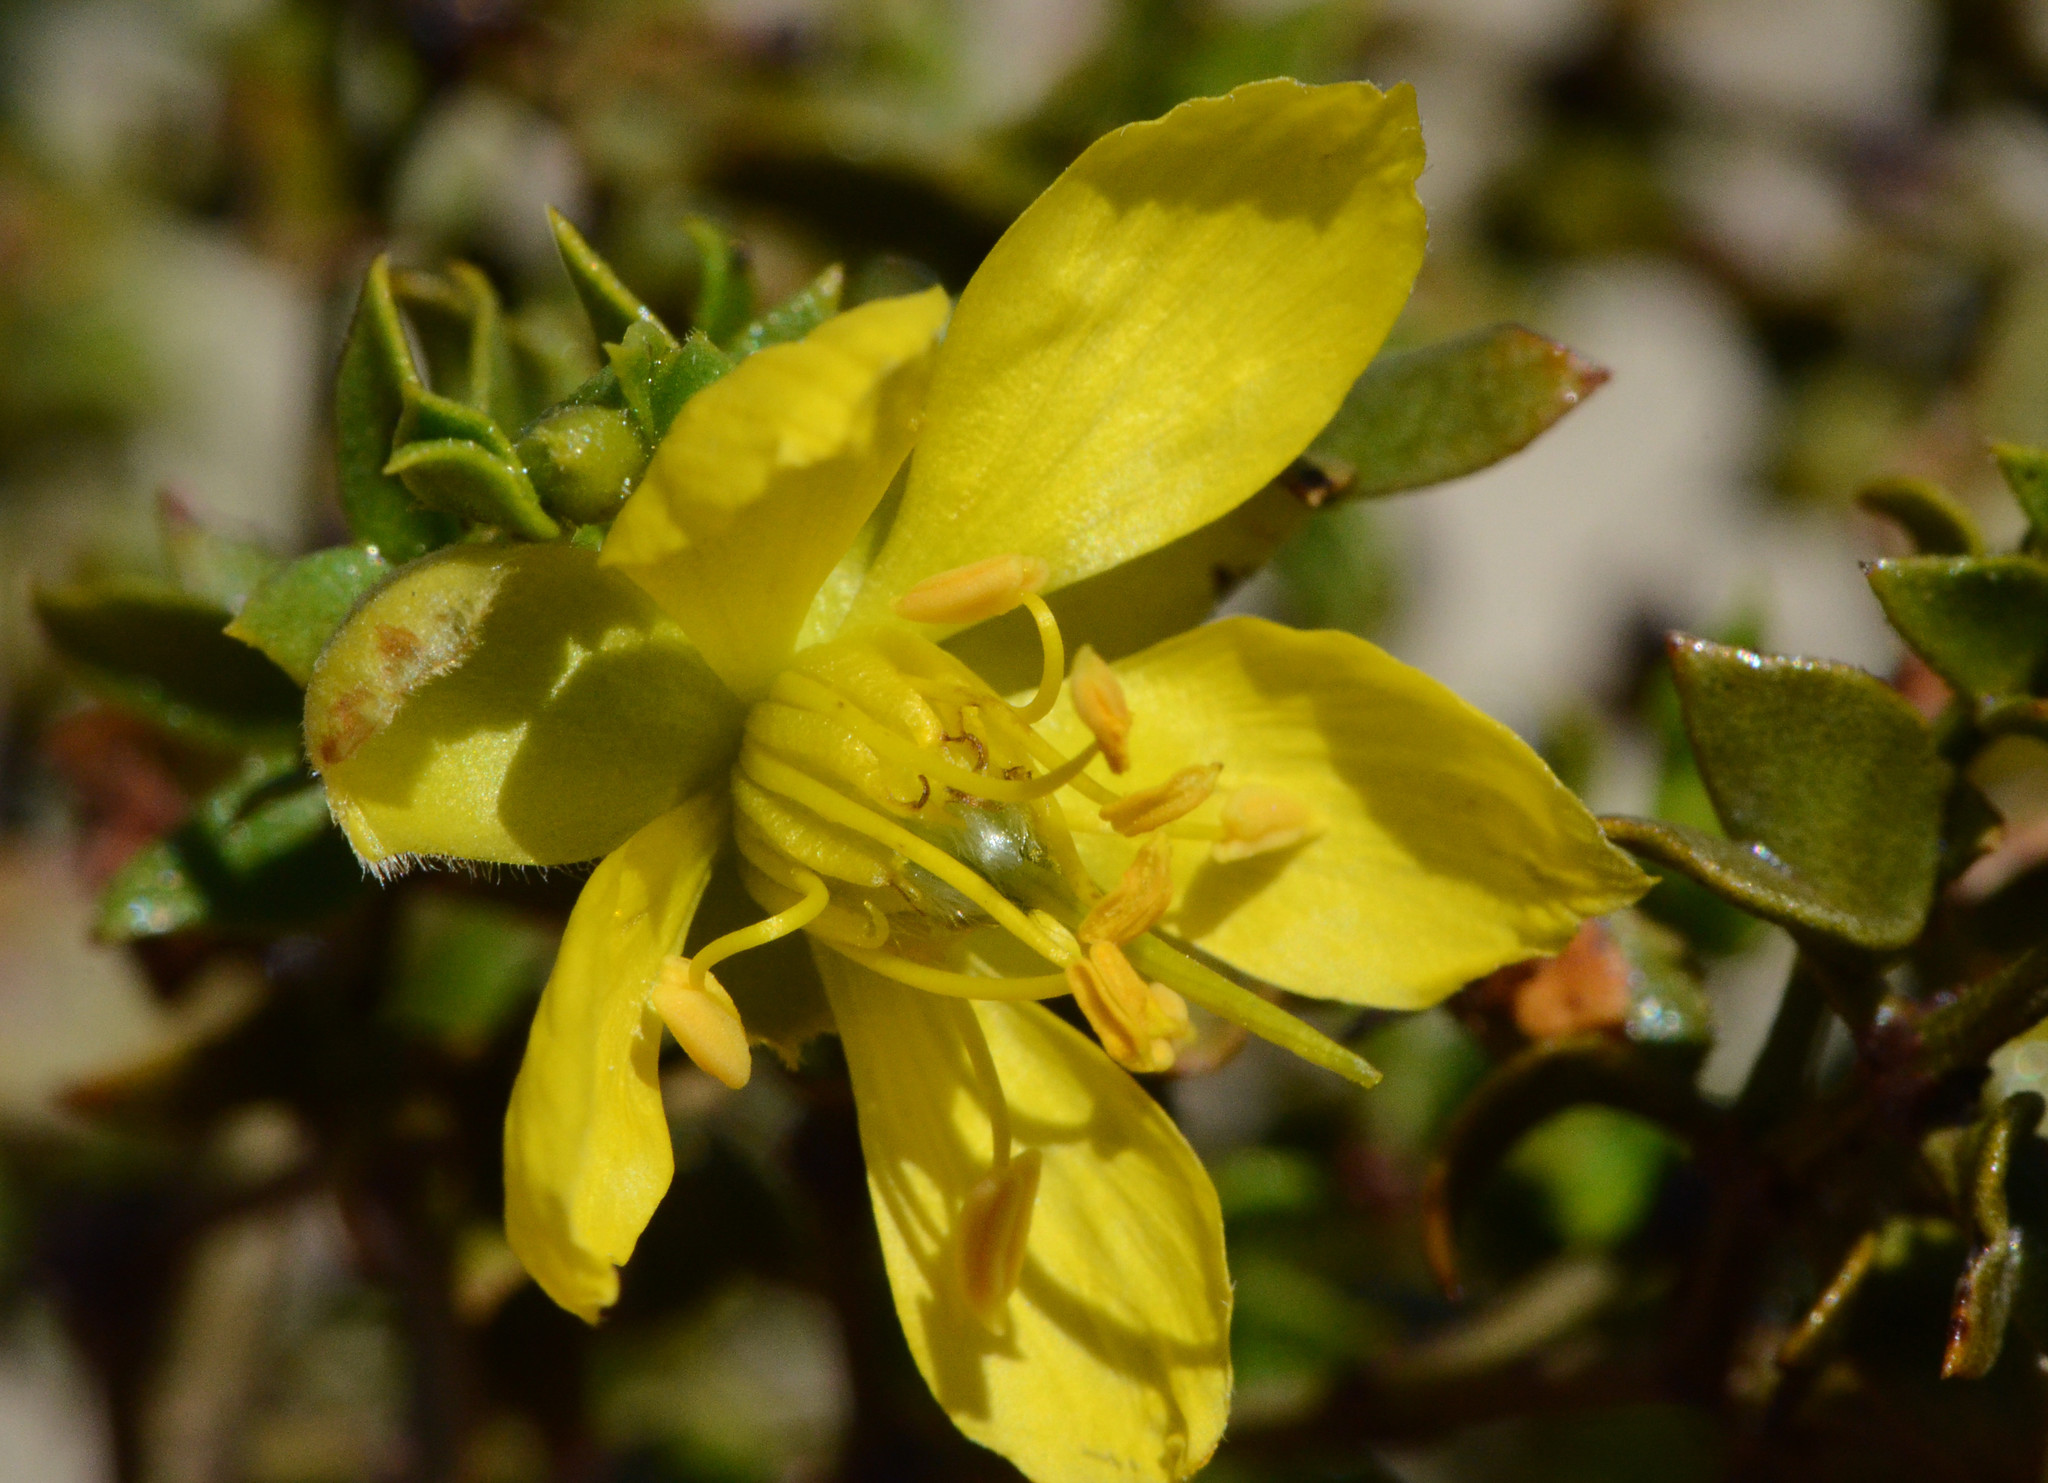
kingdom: Plantae
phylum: Tracheophyta
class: Magnoliopsida
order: Zygophyllales
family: Zygophyllaceae
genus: Larrea
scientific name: Larrea tridentata
